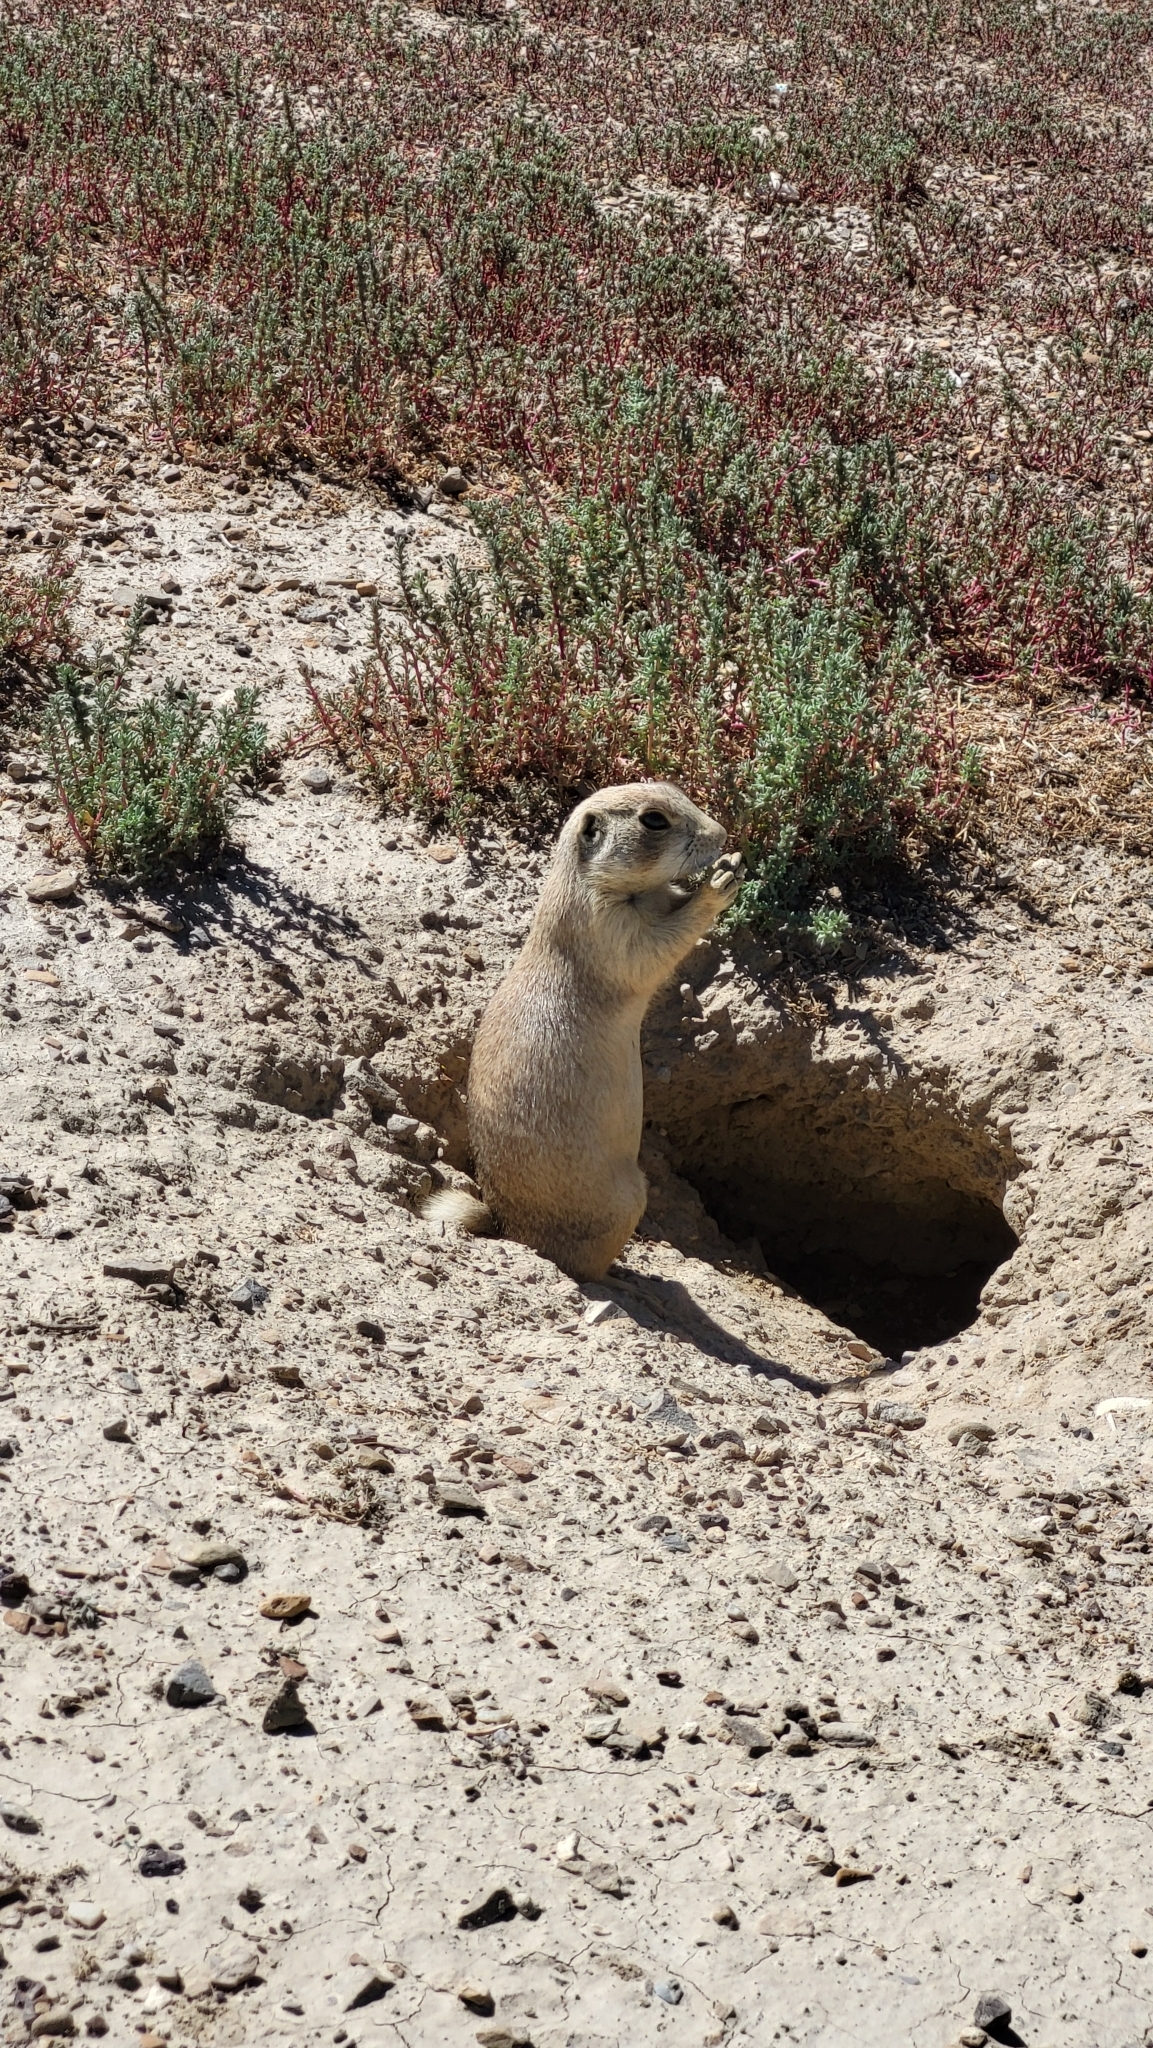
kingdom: Animalia
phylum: Chordata
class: Mammalia
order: Rodentia
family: Sciuridae
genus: Cynomys
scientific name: Cynomys leucurus
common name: White-tailed prairie dog
